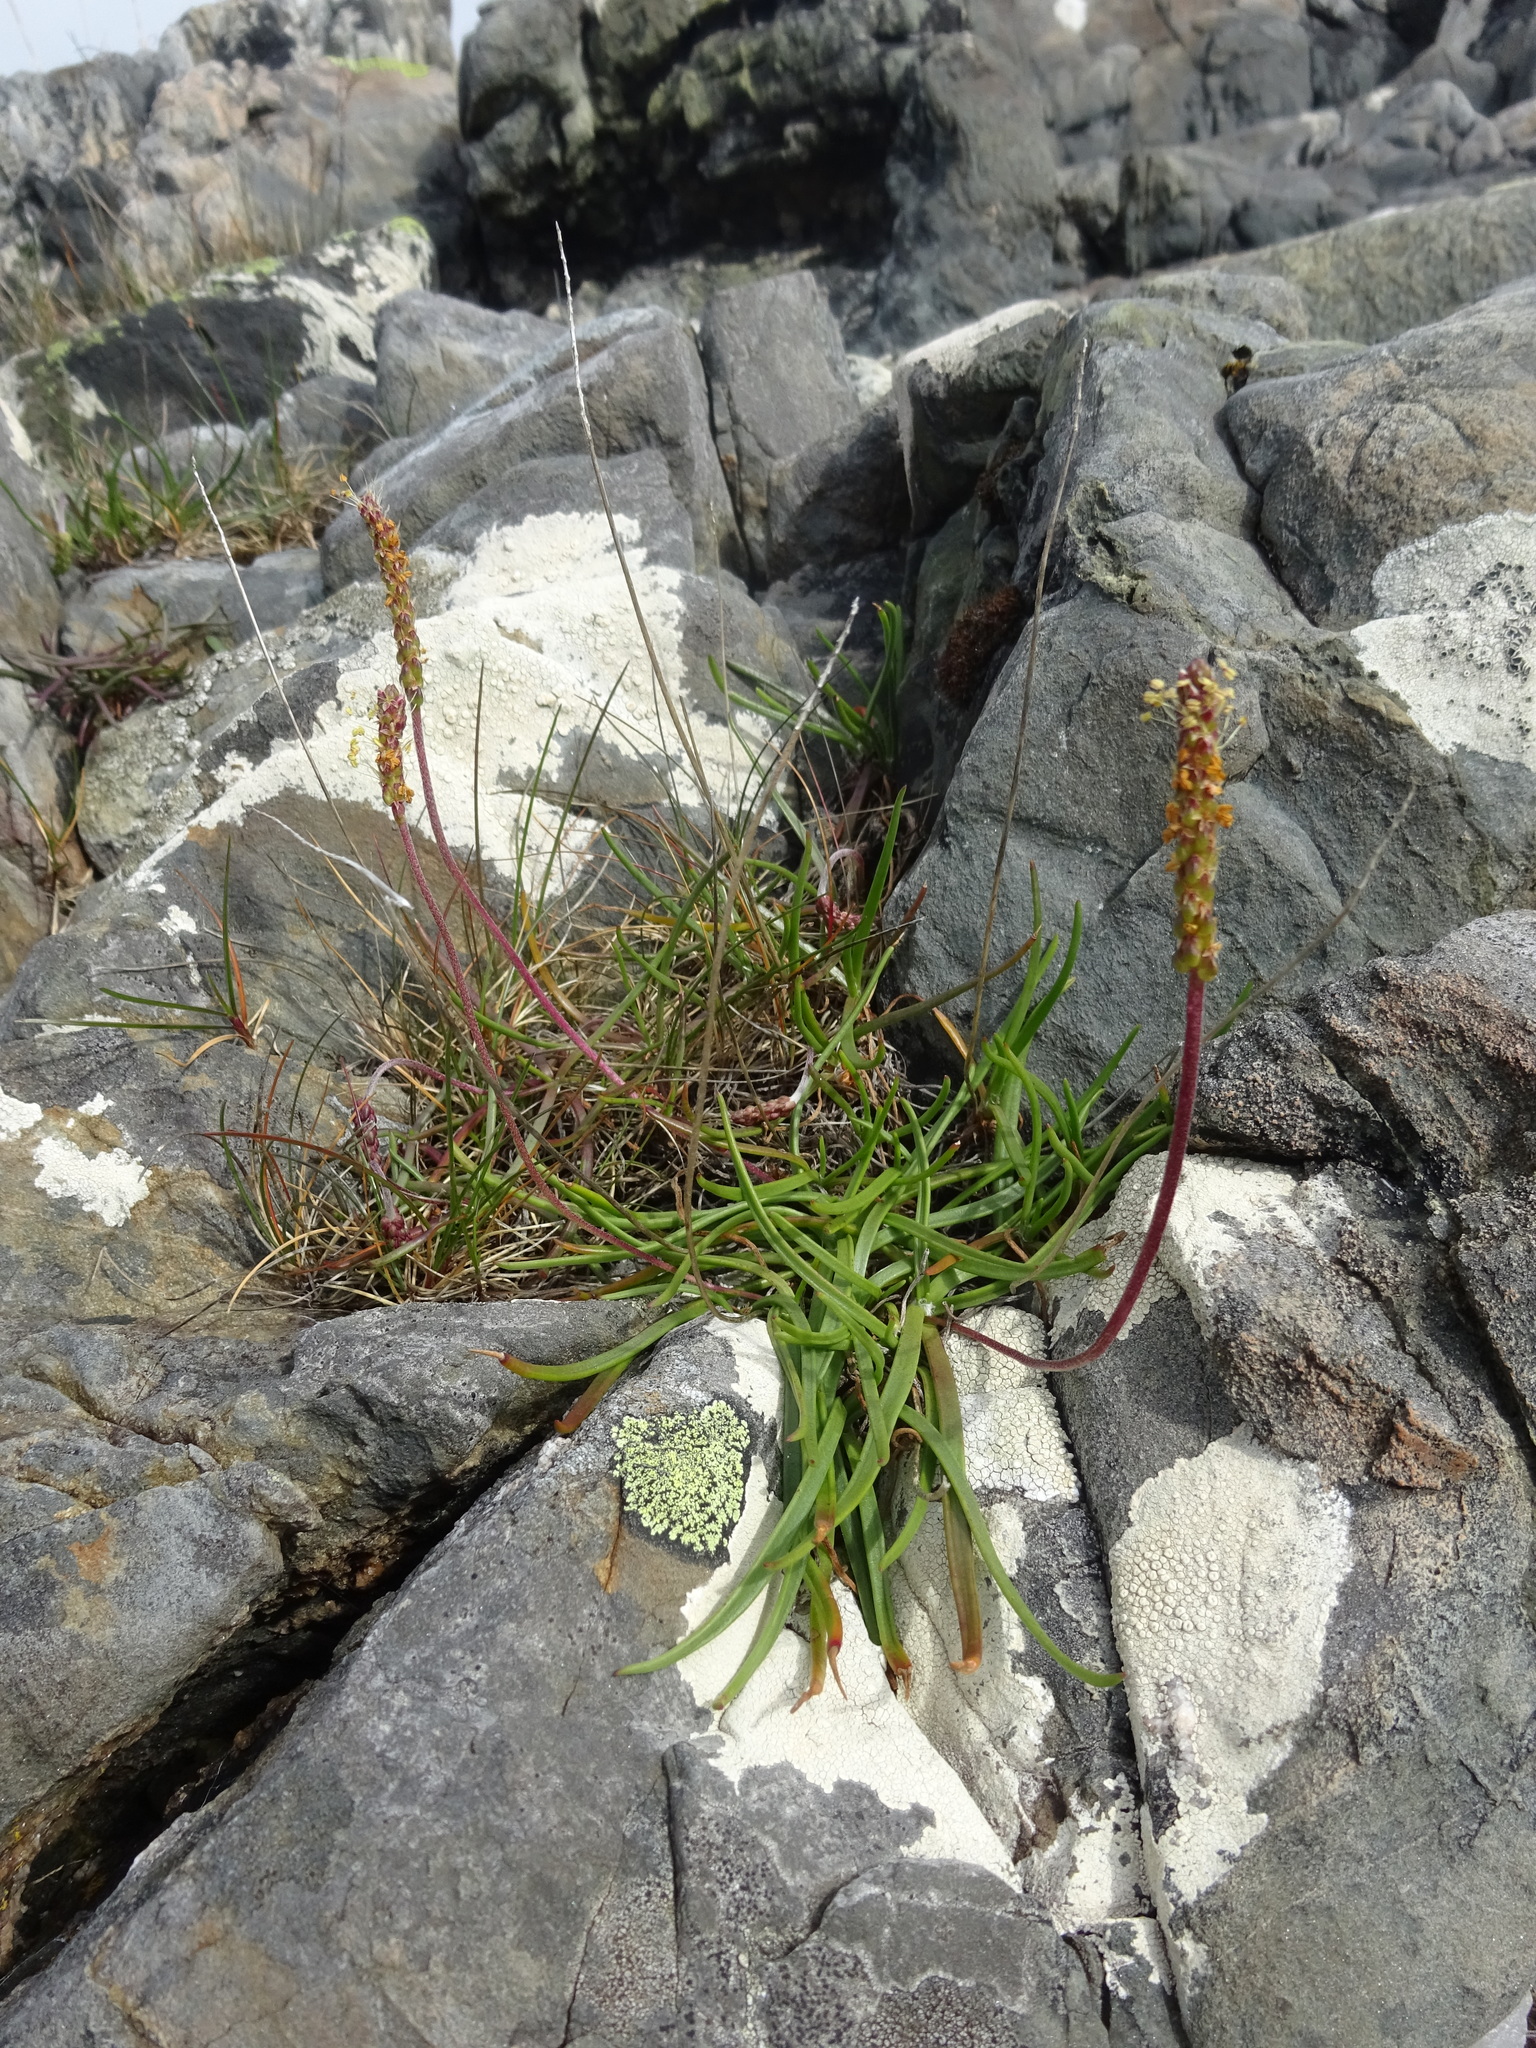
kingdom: Plantae
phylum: Tracheophyta
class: Magnoliopsida
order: Lamiales
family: Plantaginaceae
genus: Plantago
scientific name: Plantago maritima
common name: Sea plantain
